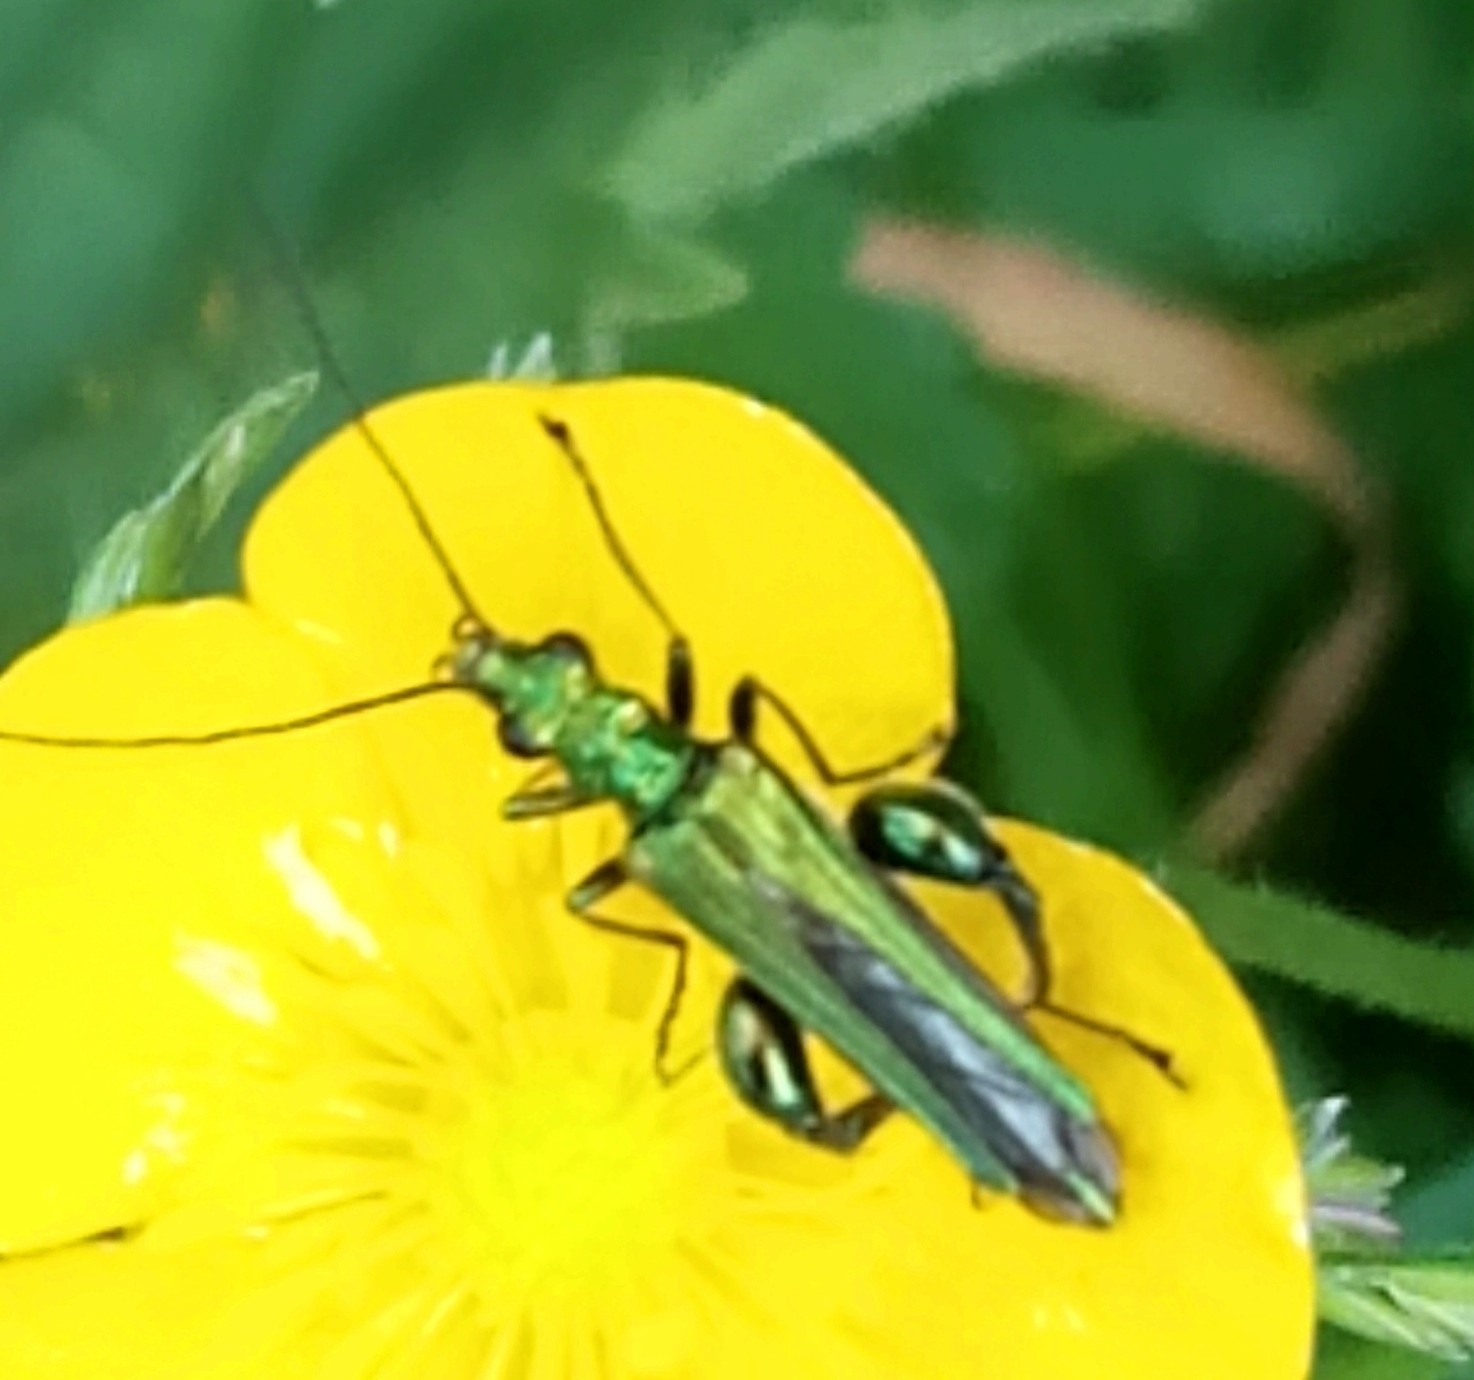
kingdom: Animalia
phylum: Arthropoda
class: Insecta
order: Coleoptera
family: Oedemeridae
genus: Oedemera
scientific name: Oedemera nobilis
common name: Swollen-thighed beetle
